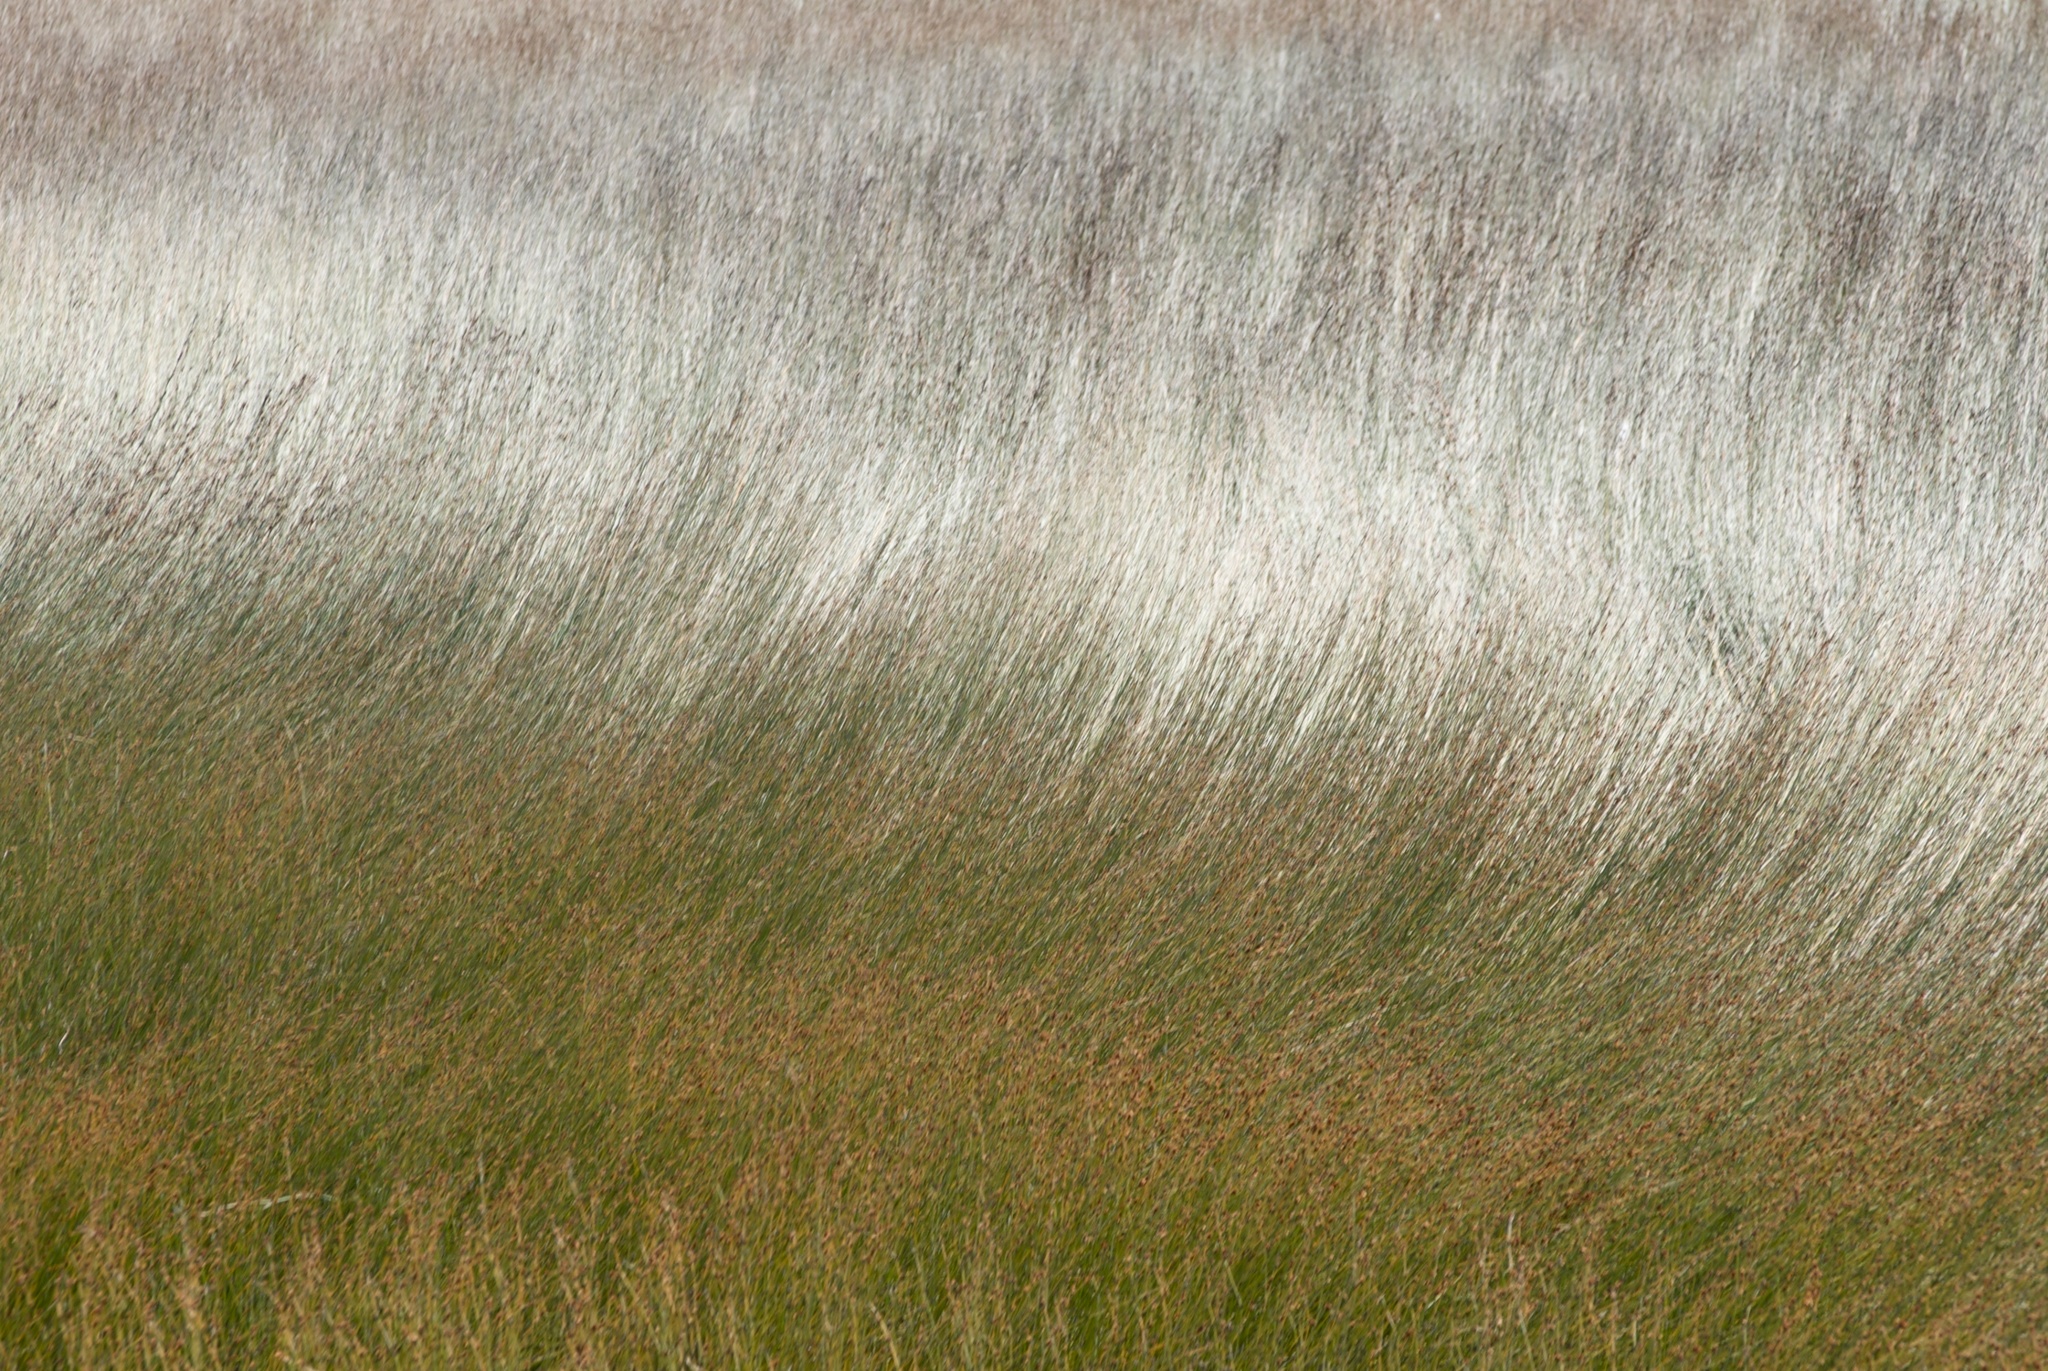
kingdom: Plantae
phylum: Tracheophyta
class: Liliopsida
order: Poales
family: Restionaceae
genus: Apodasmia
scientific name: Apodasmia similis
